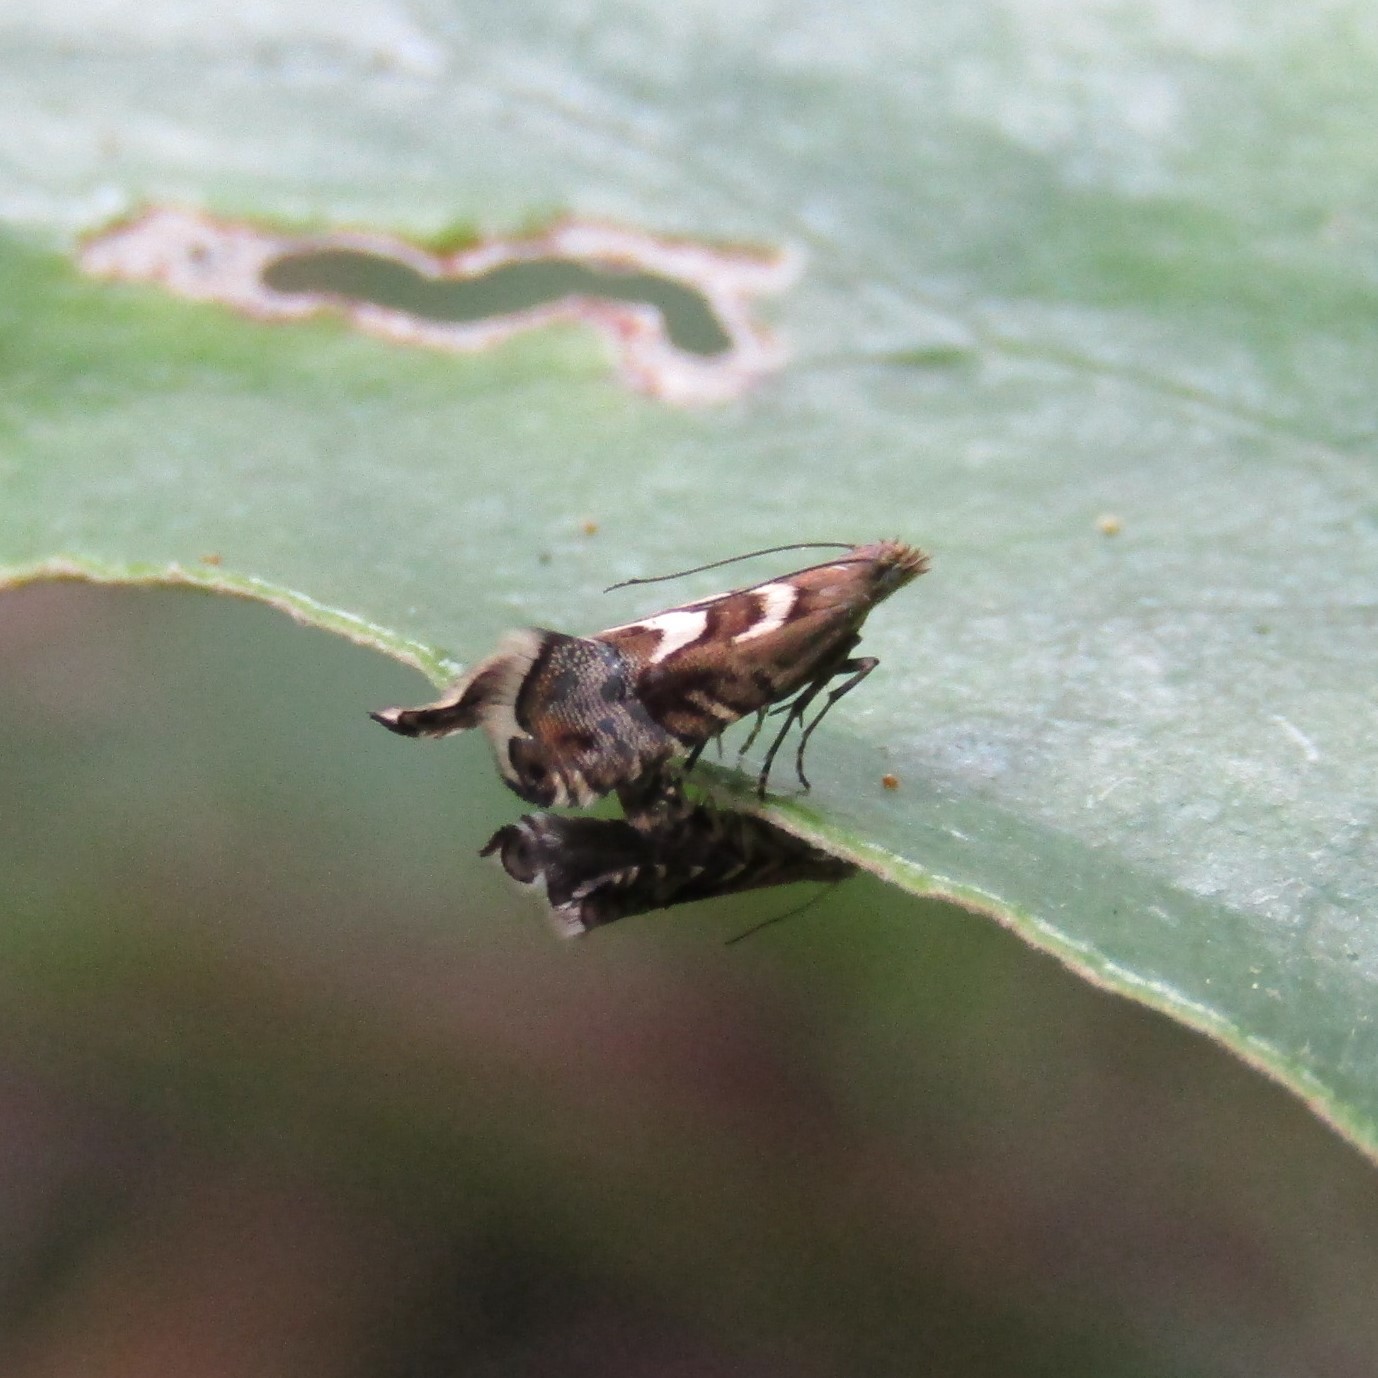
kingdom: Animalia
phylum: Arthropoda
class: Insecta
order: Lepidoptera
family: Glyphipterigidae
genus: Glyphipterix
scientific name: Glyphipterix asteronota
